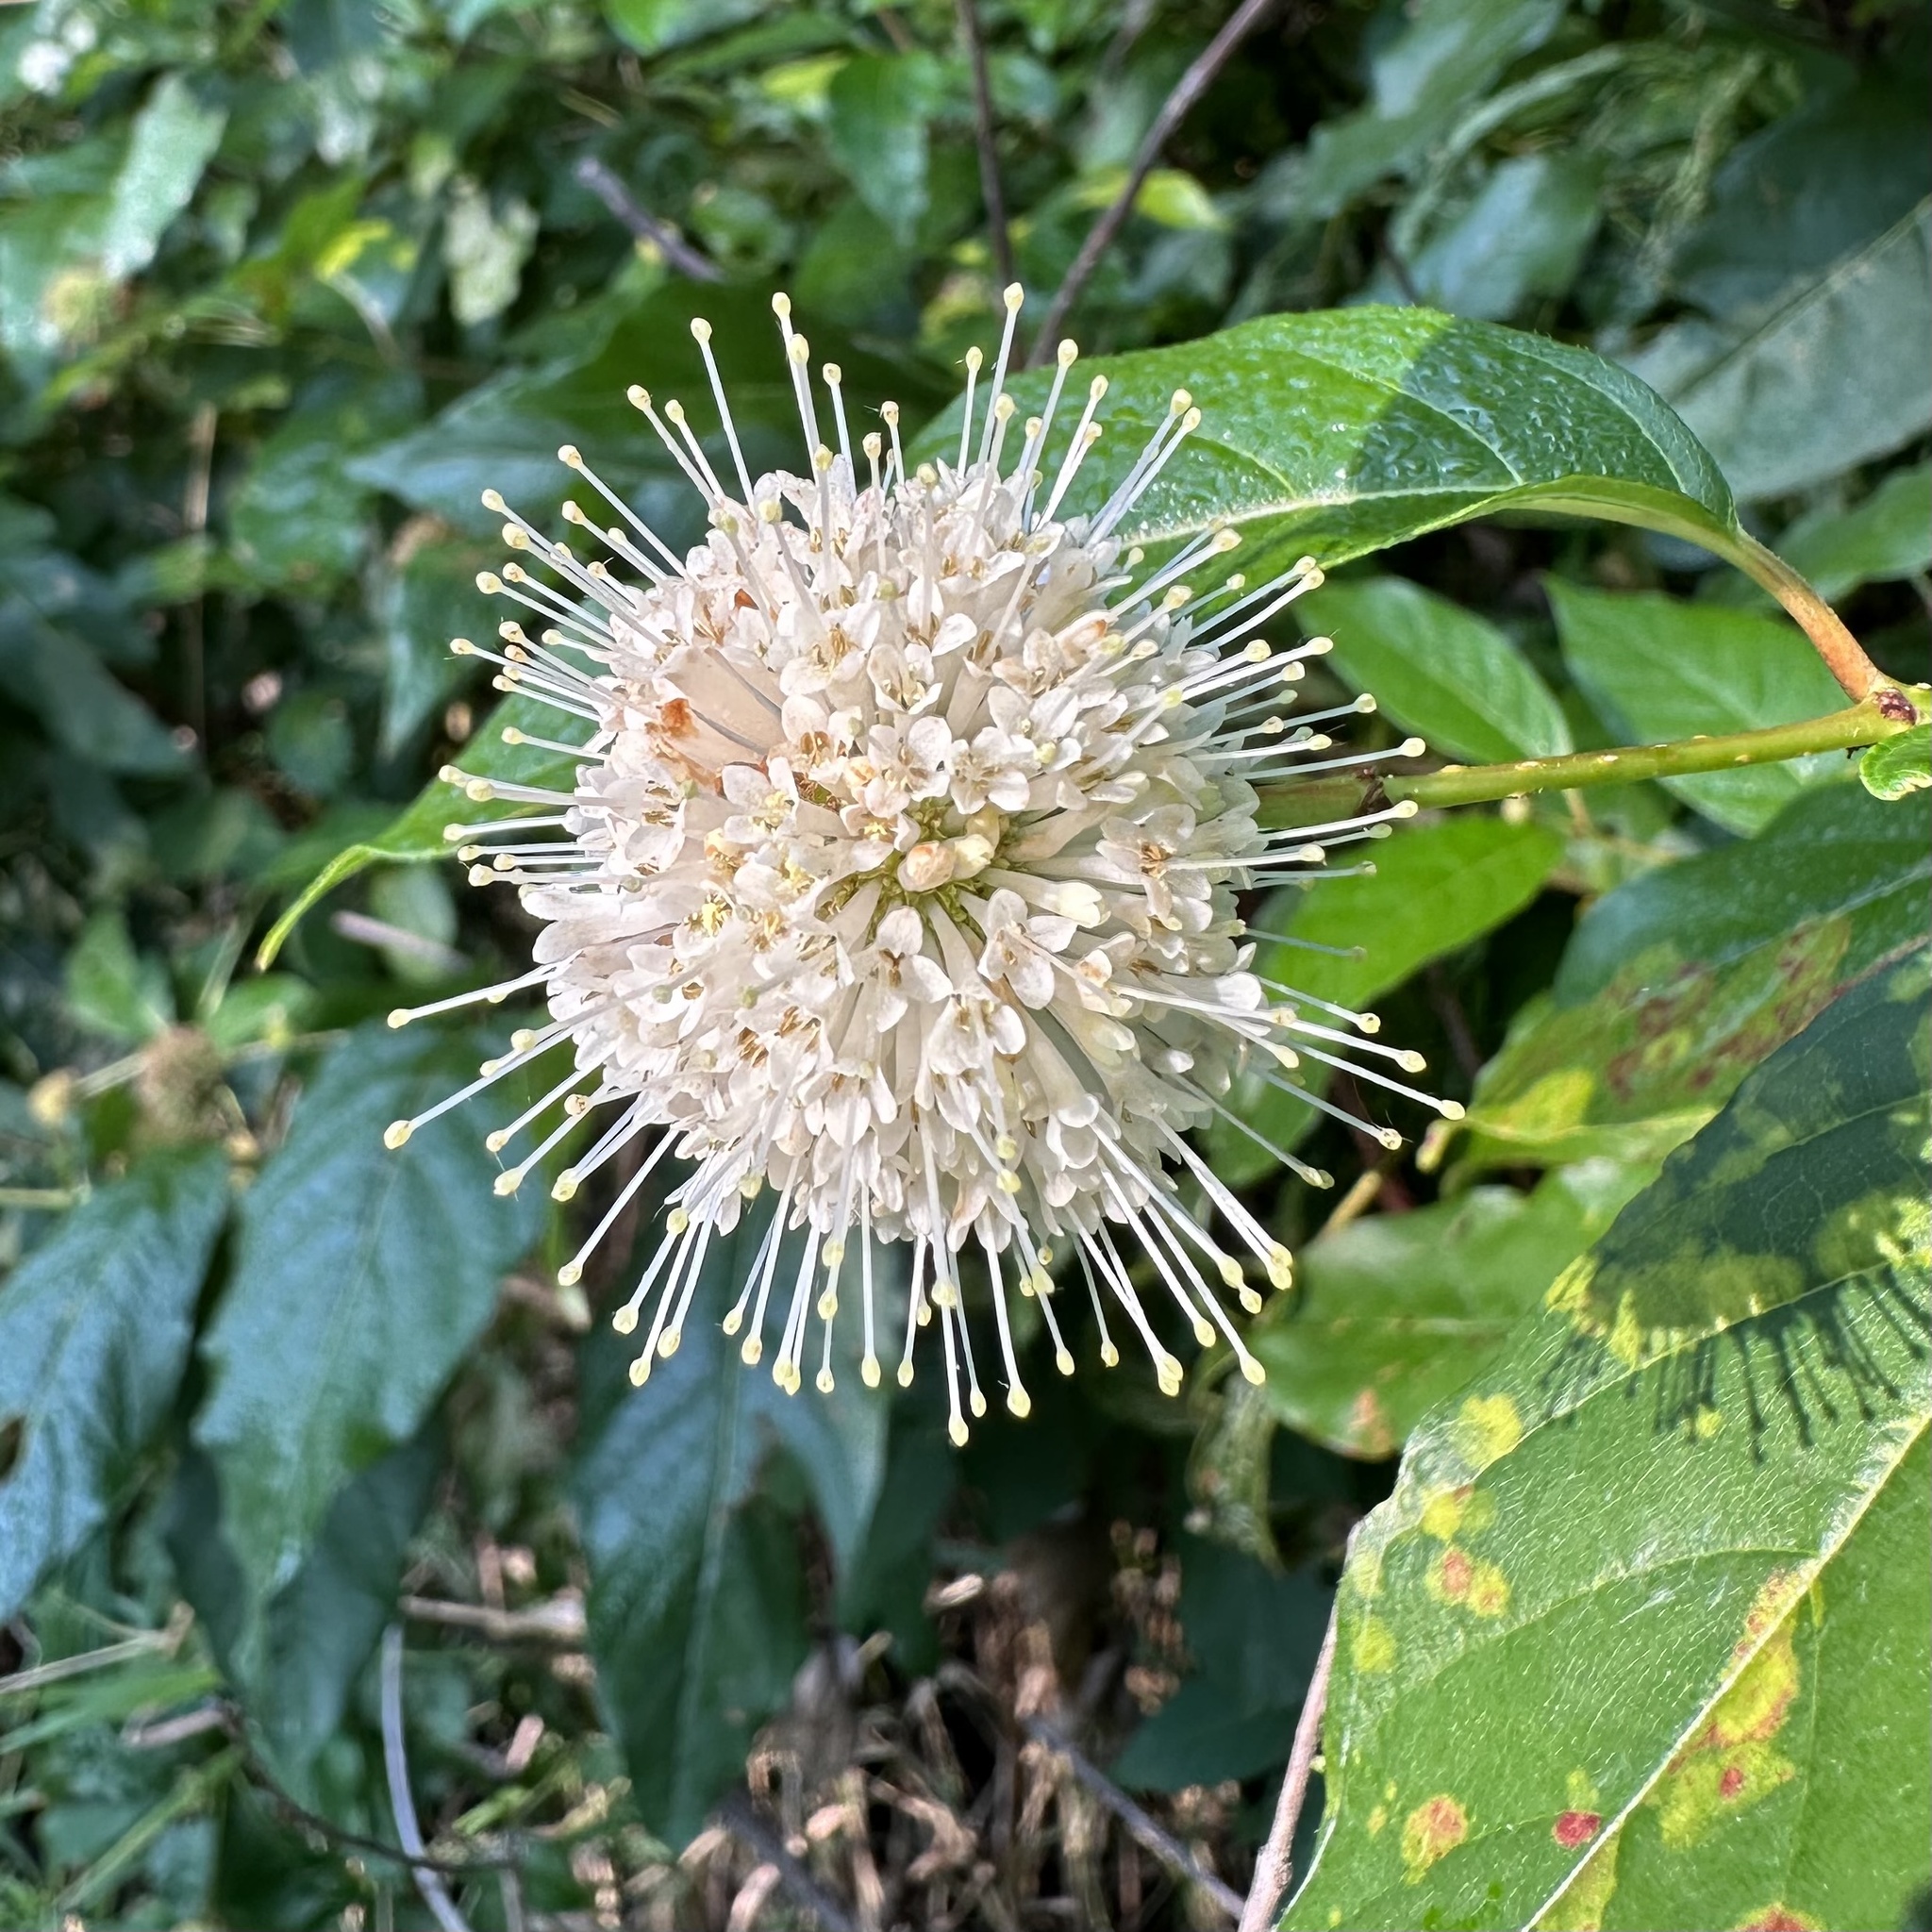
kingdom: Plantae
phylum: Tracheophyta
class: Magnoliopsida
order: Gentianales
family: Rubiaceae
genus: Cephalanthus
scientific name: Cephalanthus occidentalis
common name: Button-willow
